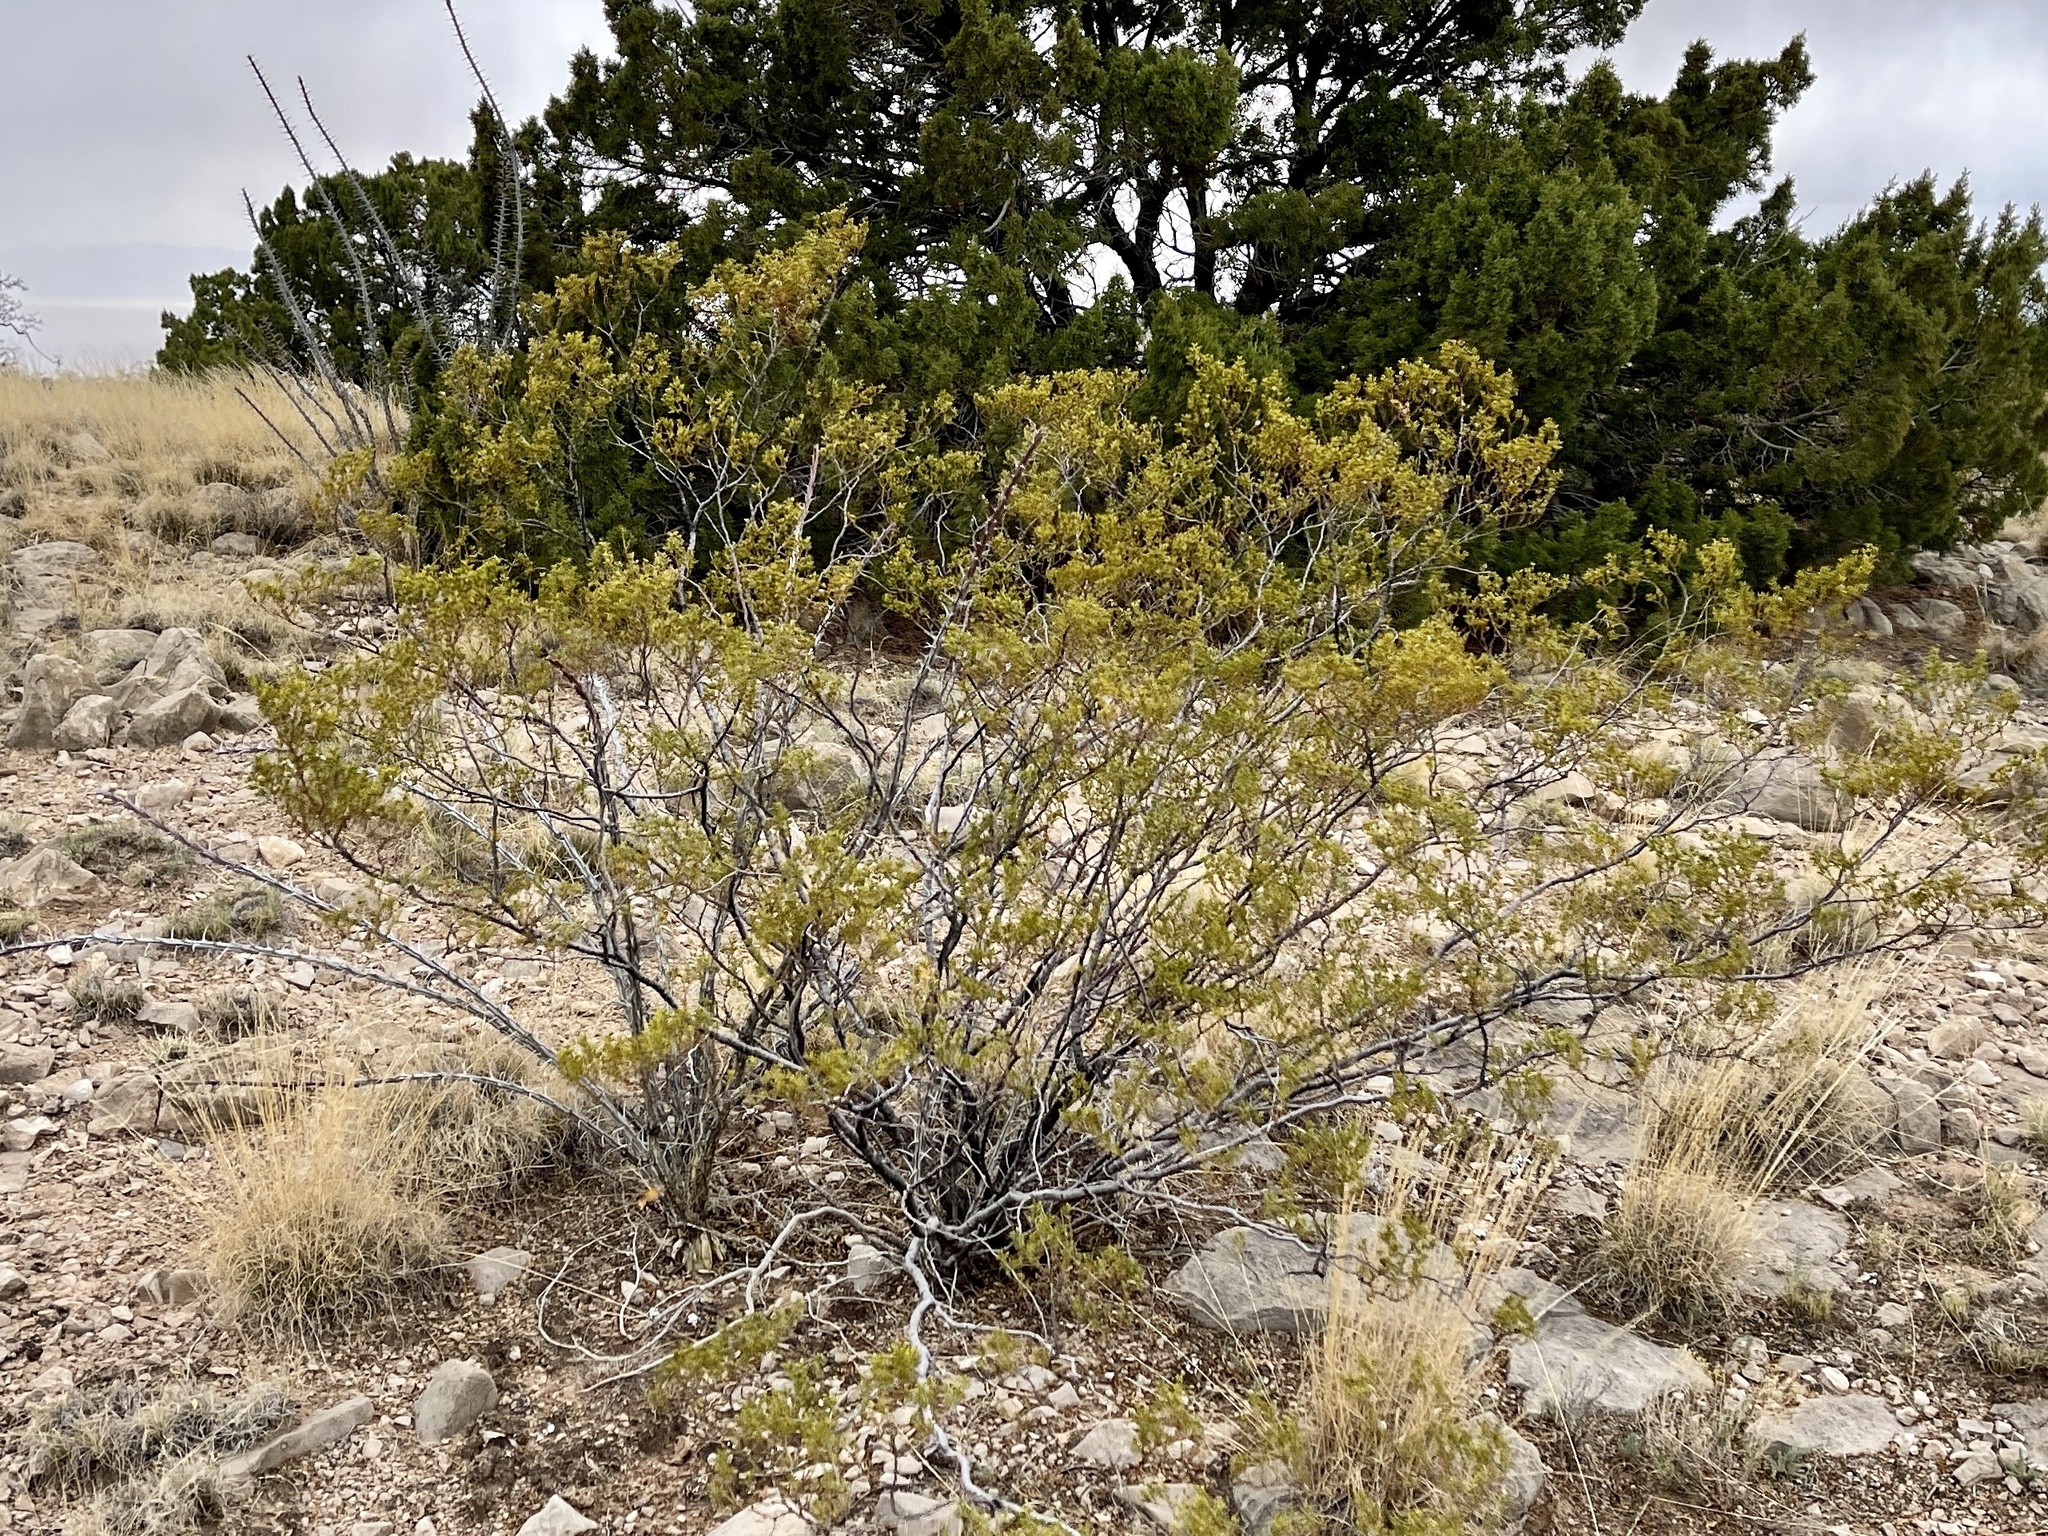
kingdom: Plantae
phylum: Tracheophyta
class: Magnoliopsida
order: Zygophyllales
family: Zygophyllaceae
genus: Larrea
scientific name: Larrea tridentata
